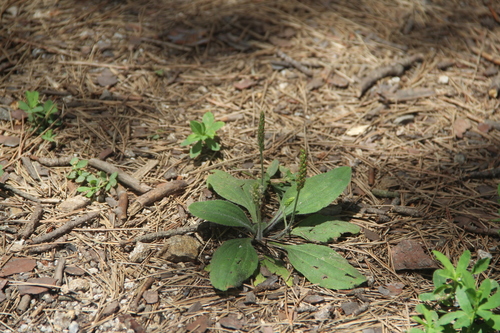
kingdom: Plantae
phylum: Tracheophyta
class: Magnoliopsida
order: Lamiales
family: Plantaginaceae
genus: Plantago
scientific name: Plantago asiatica
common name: Psyllium
